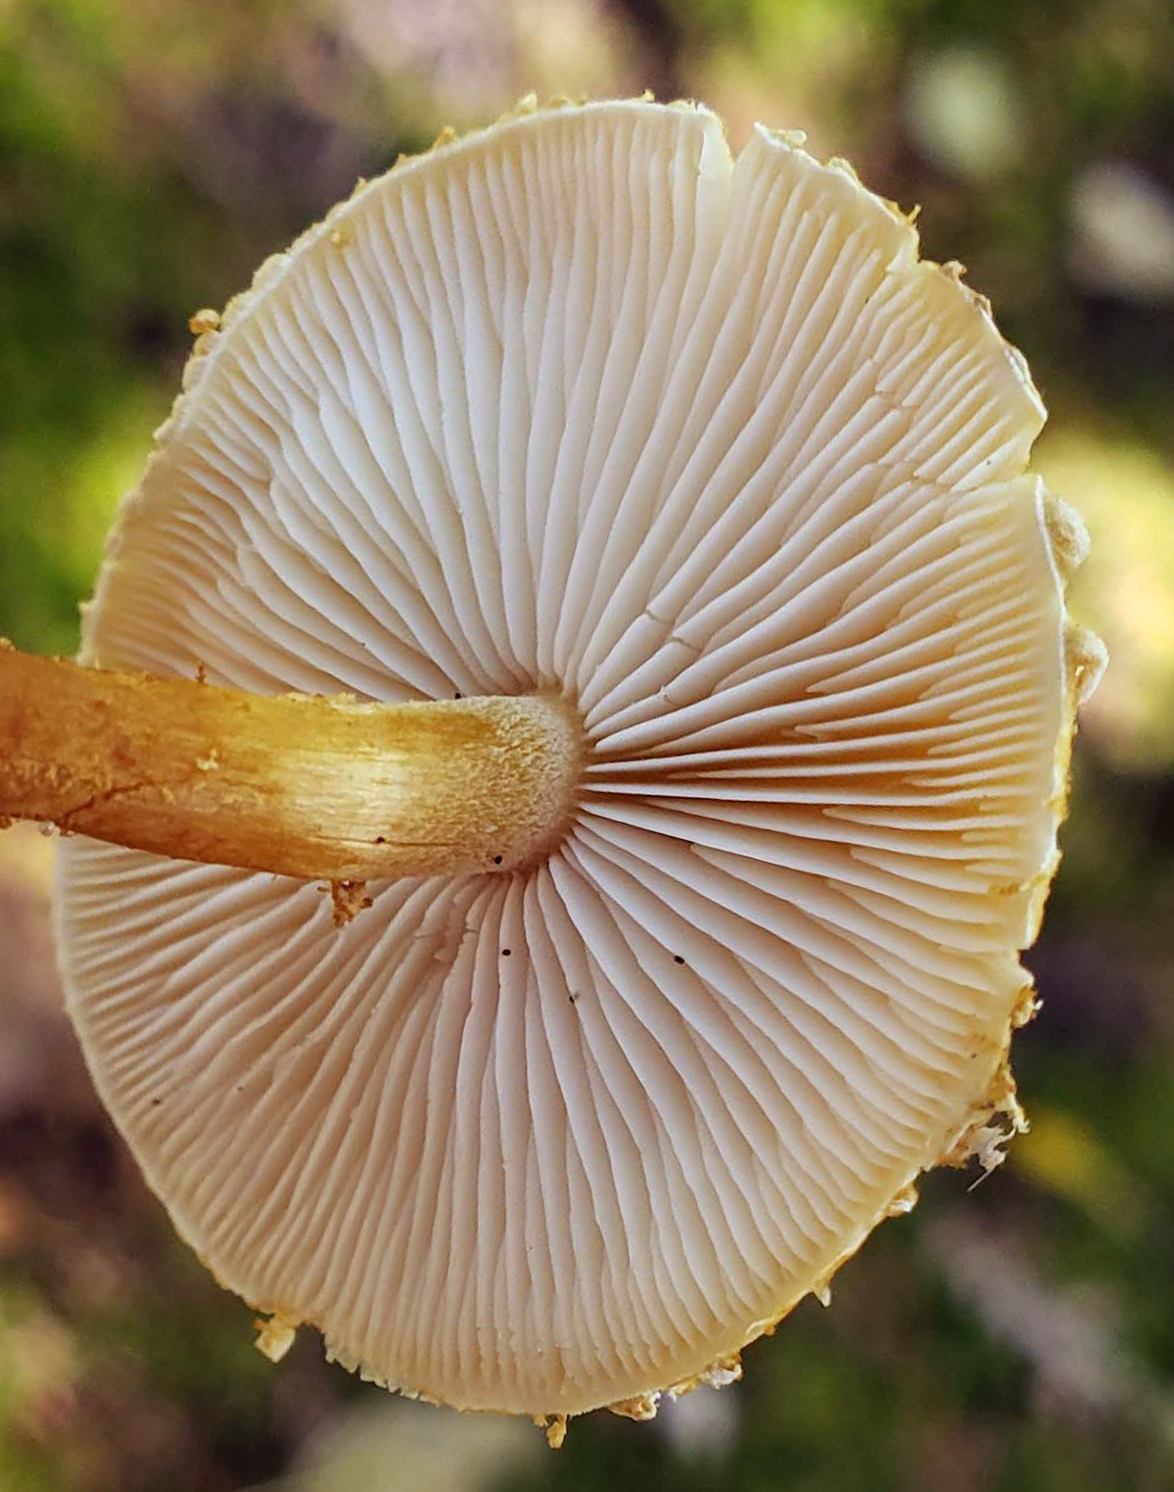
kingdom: Fungi
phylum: Basidiomycota
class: Agaricomycetes
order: Agaricales
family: Tricholomataceae
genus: Cystoderma
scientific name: Cystoderma amianthinum
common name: Earthy powdercap
